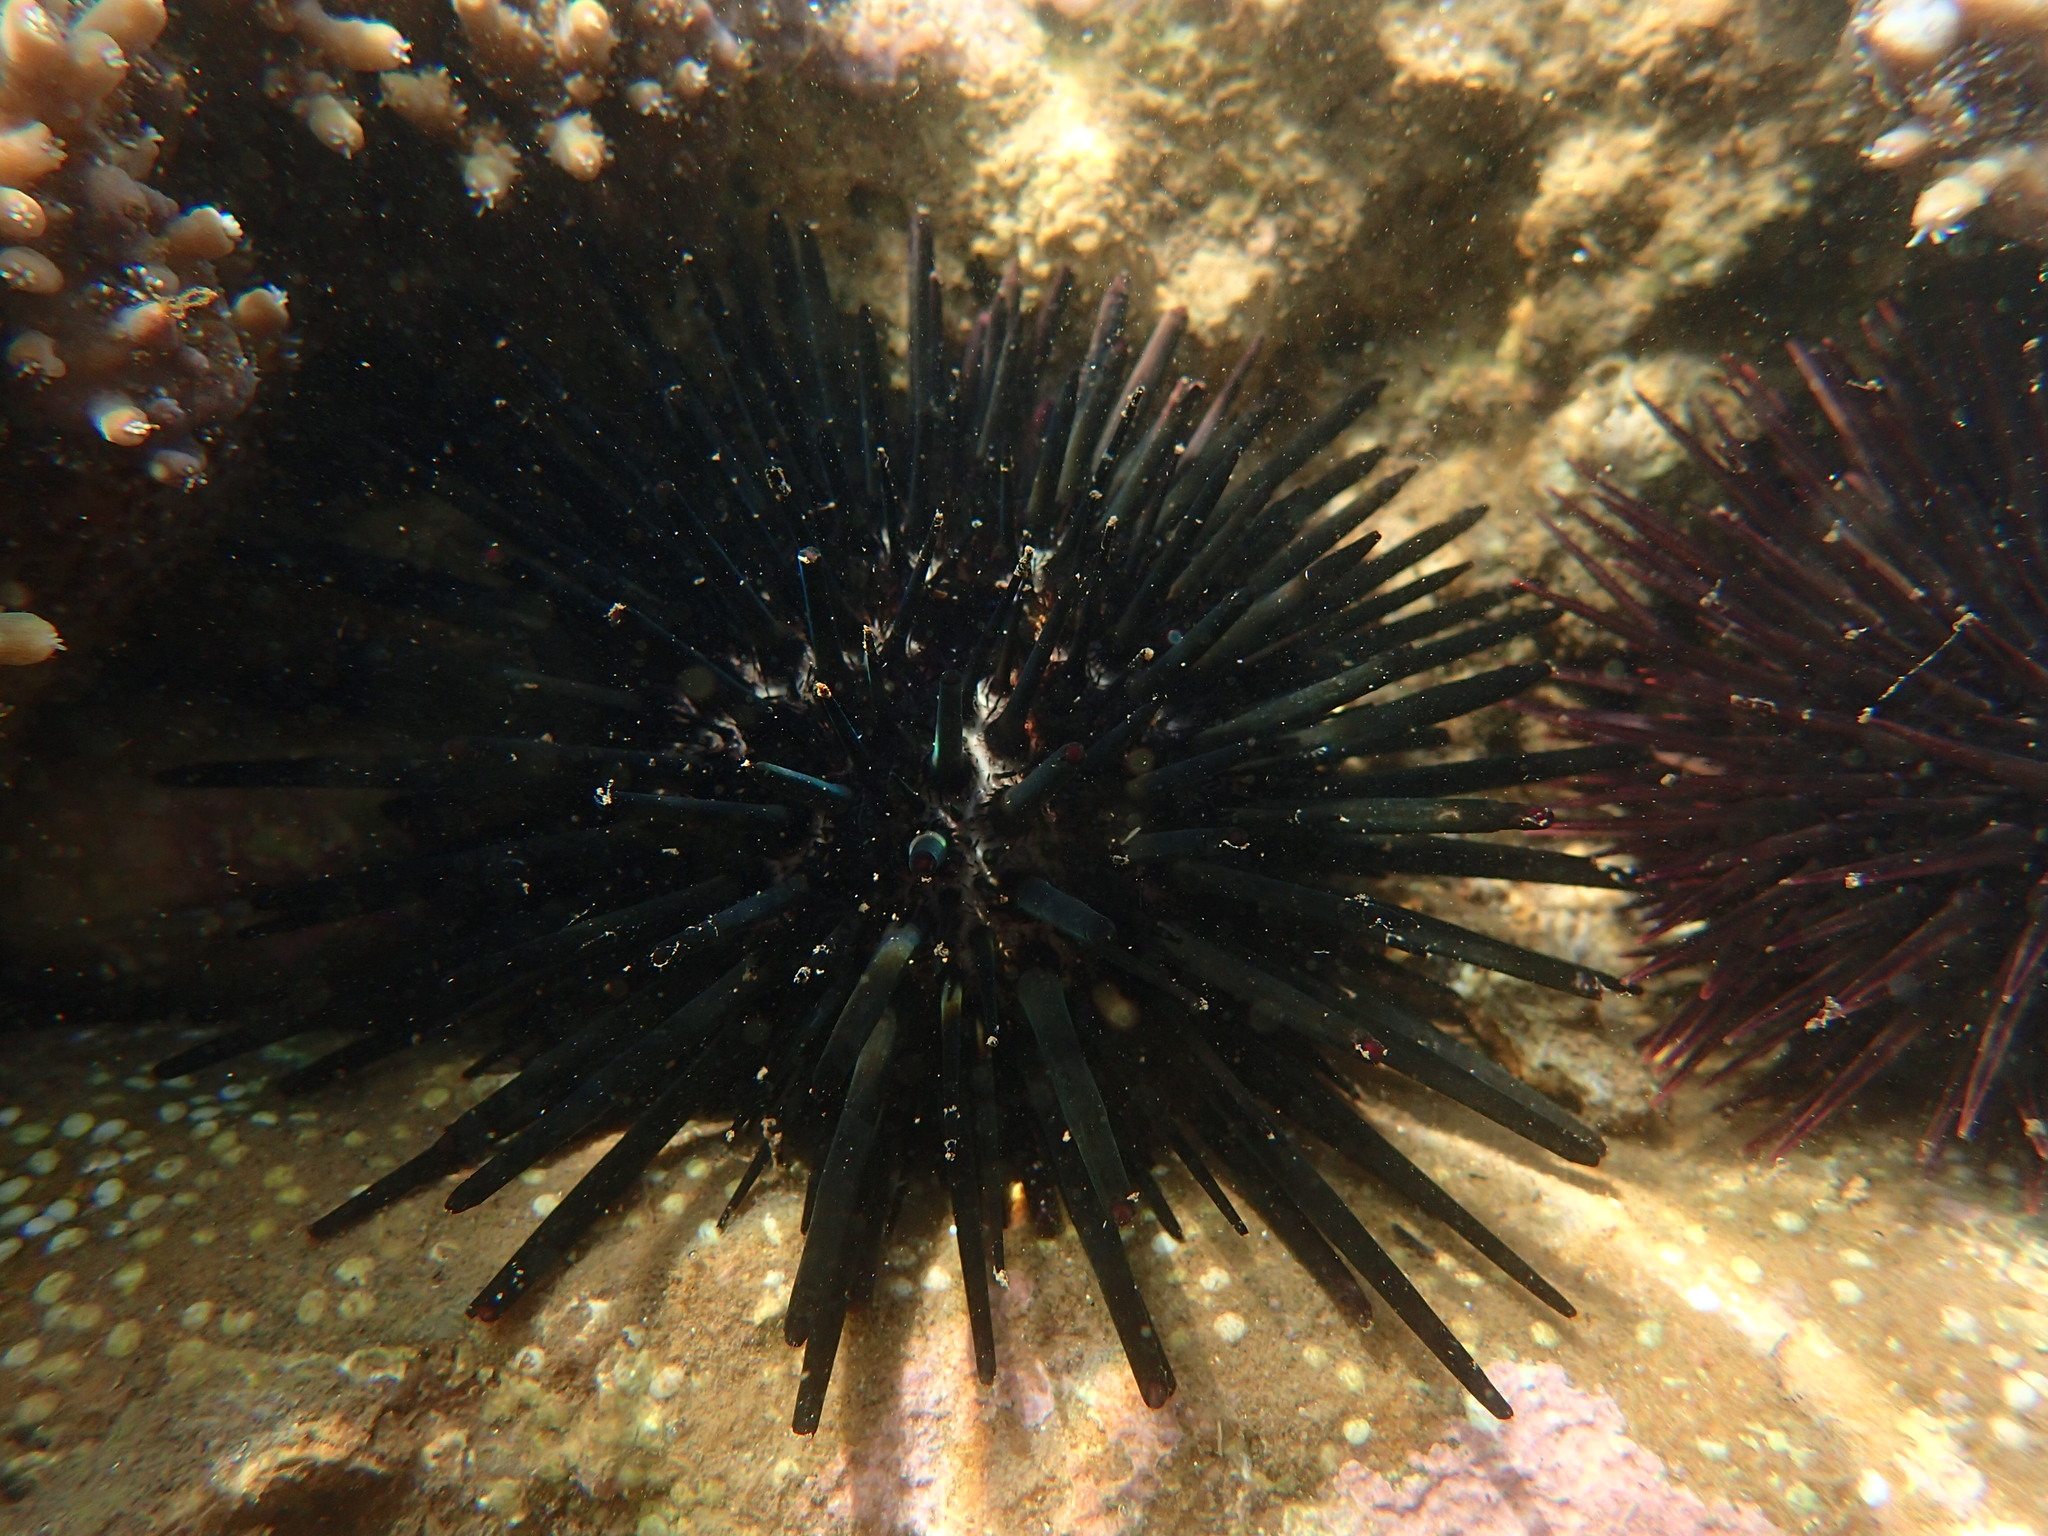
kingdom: Animalia
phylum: Echinodermata
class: Echinoidea
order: Stomopneustoida
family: Stomopneustidae
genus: Stomopneustes
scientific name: Stomopneustes variolaris
